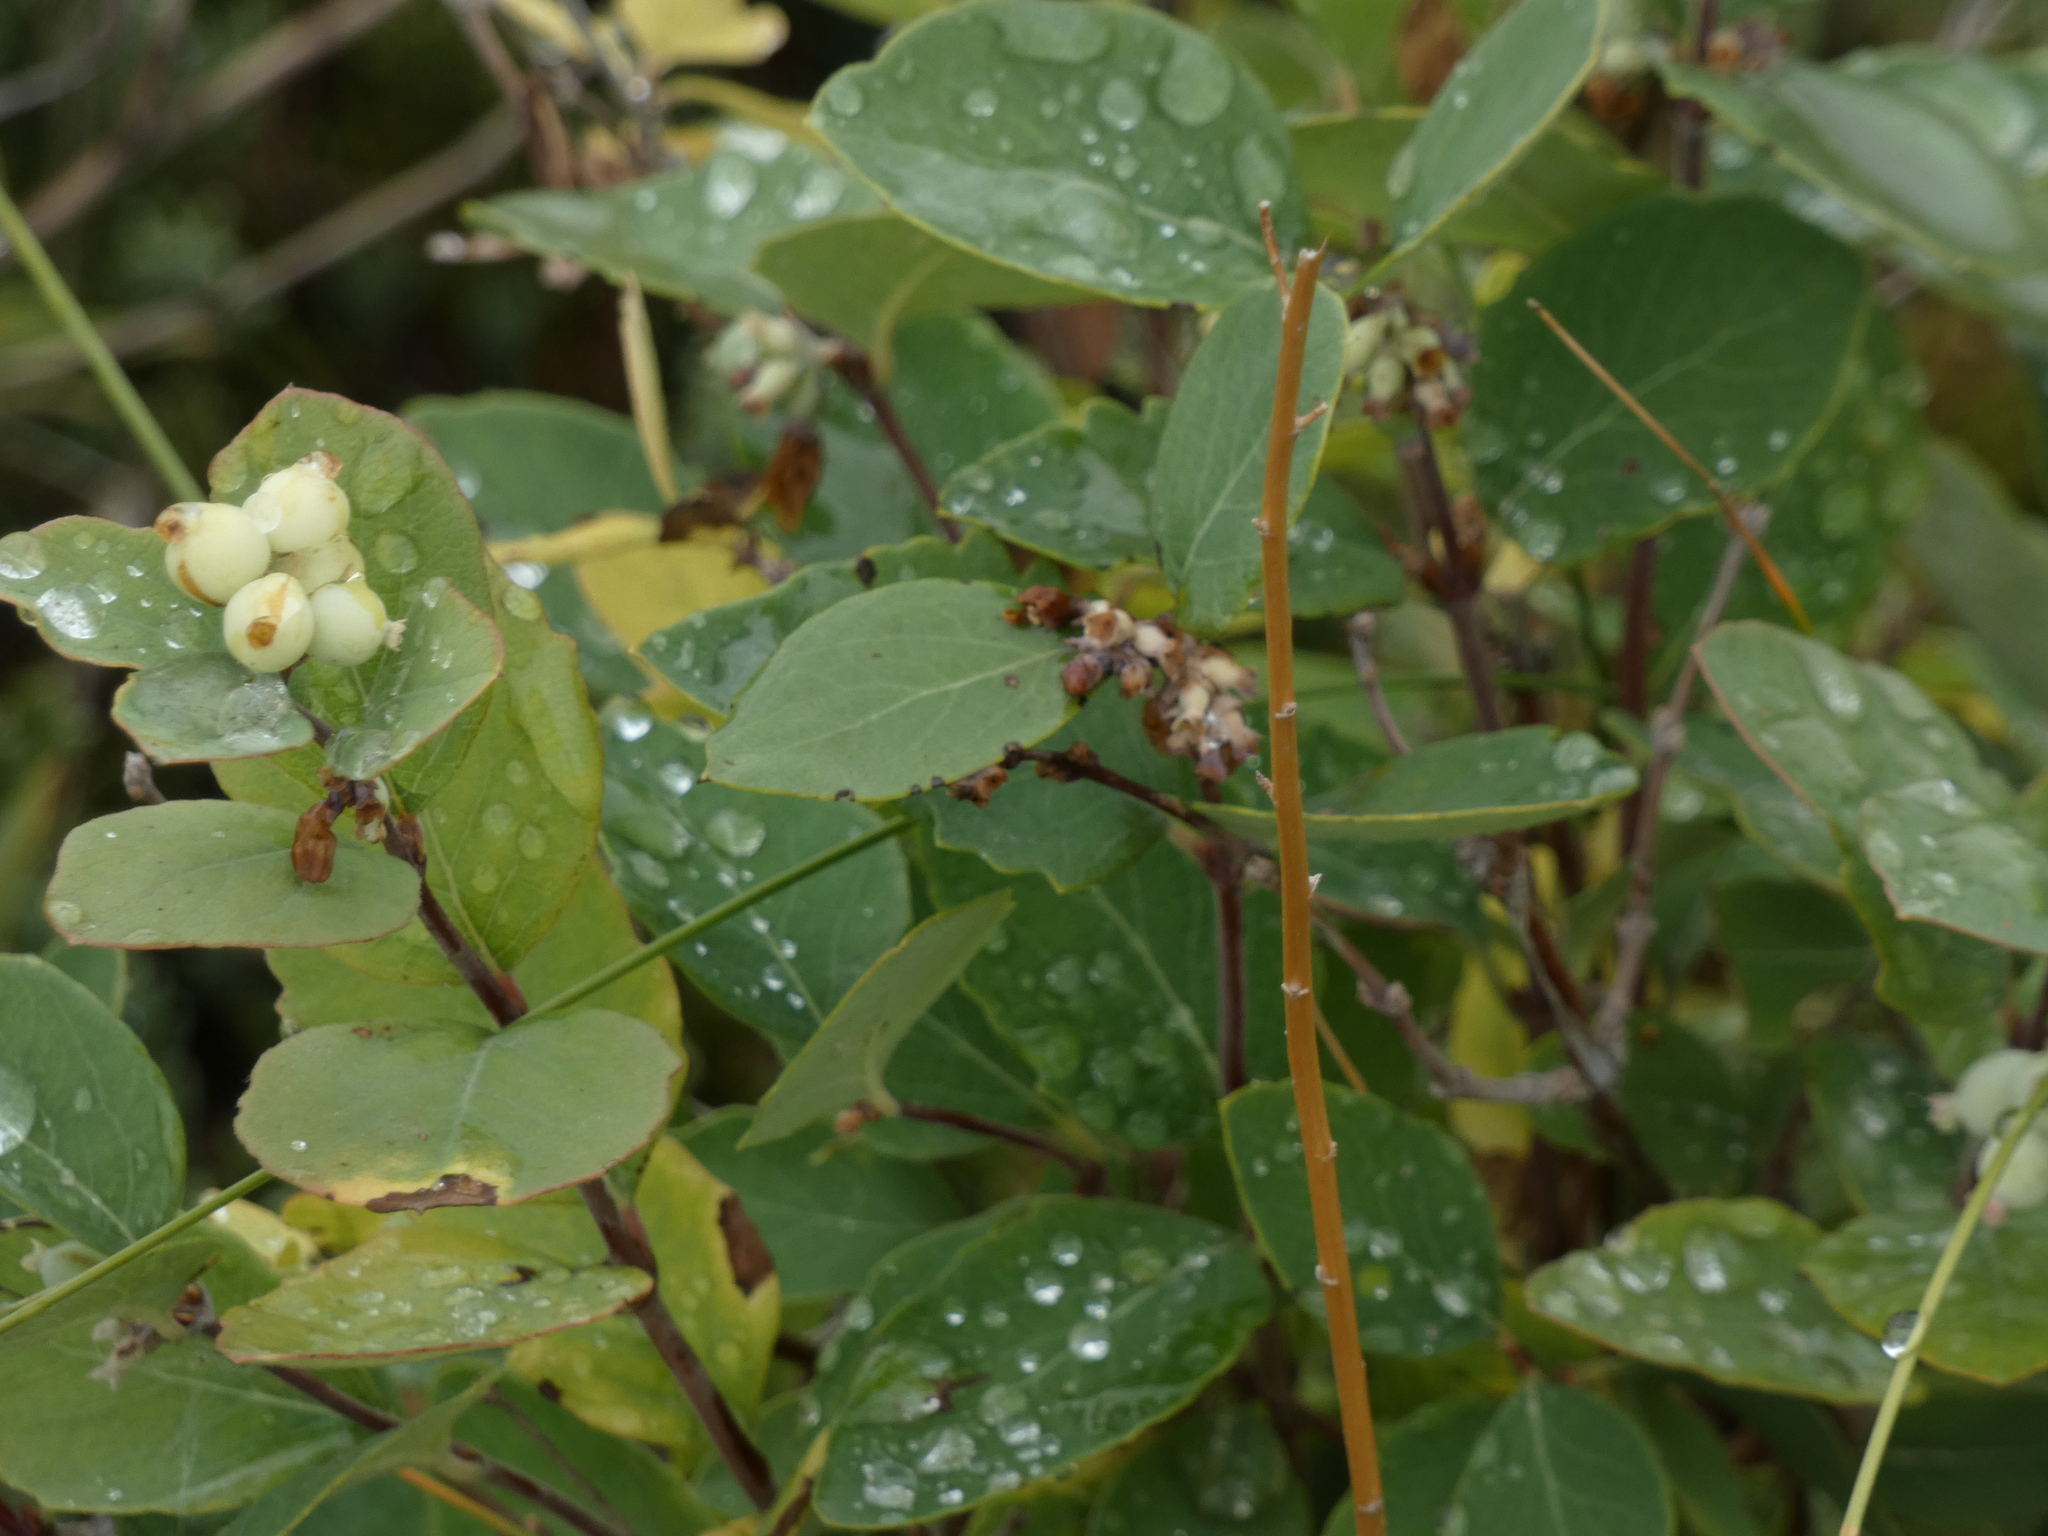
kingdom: Plantae
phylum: Tracheophyta
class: Magnoliopsida
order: Dipsacales
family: Caprifoliaceae
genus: Symphoricarpos
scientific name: Symphoricarpos occidentalis
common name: Wolfberry
